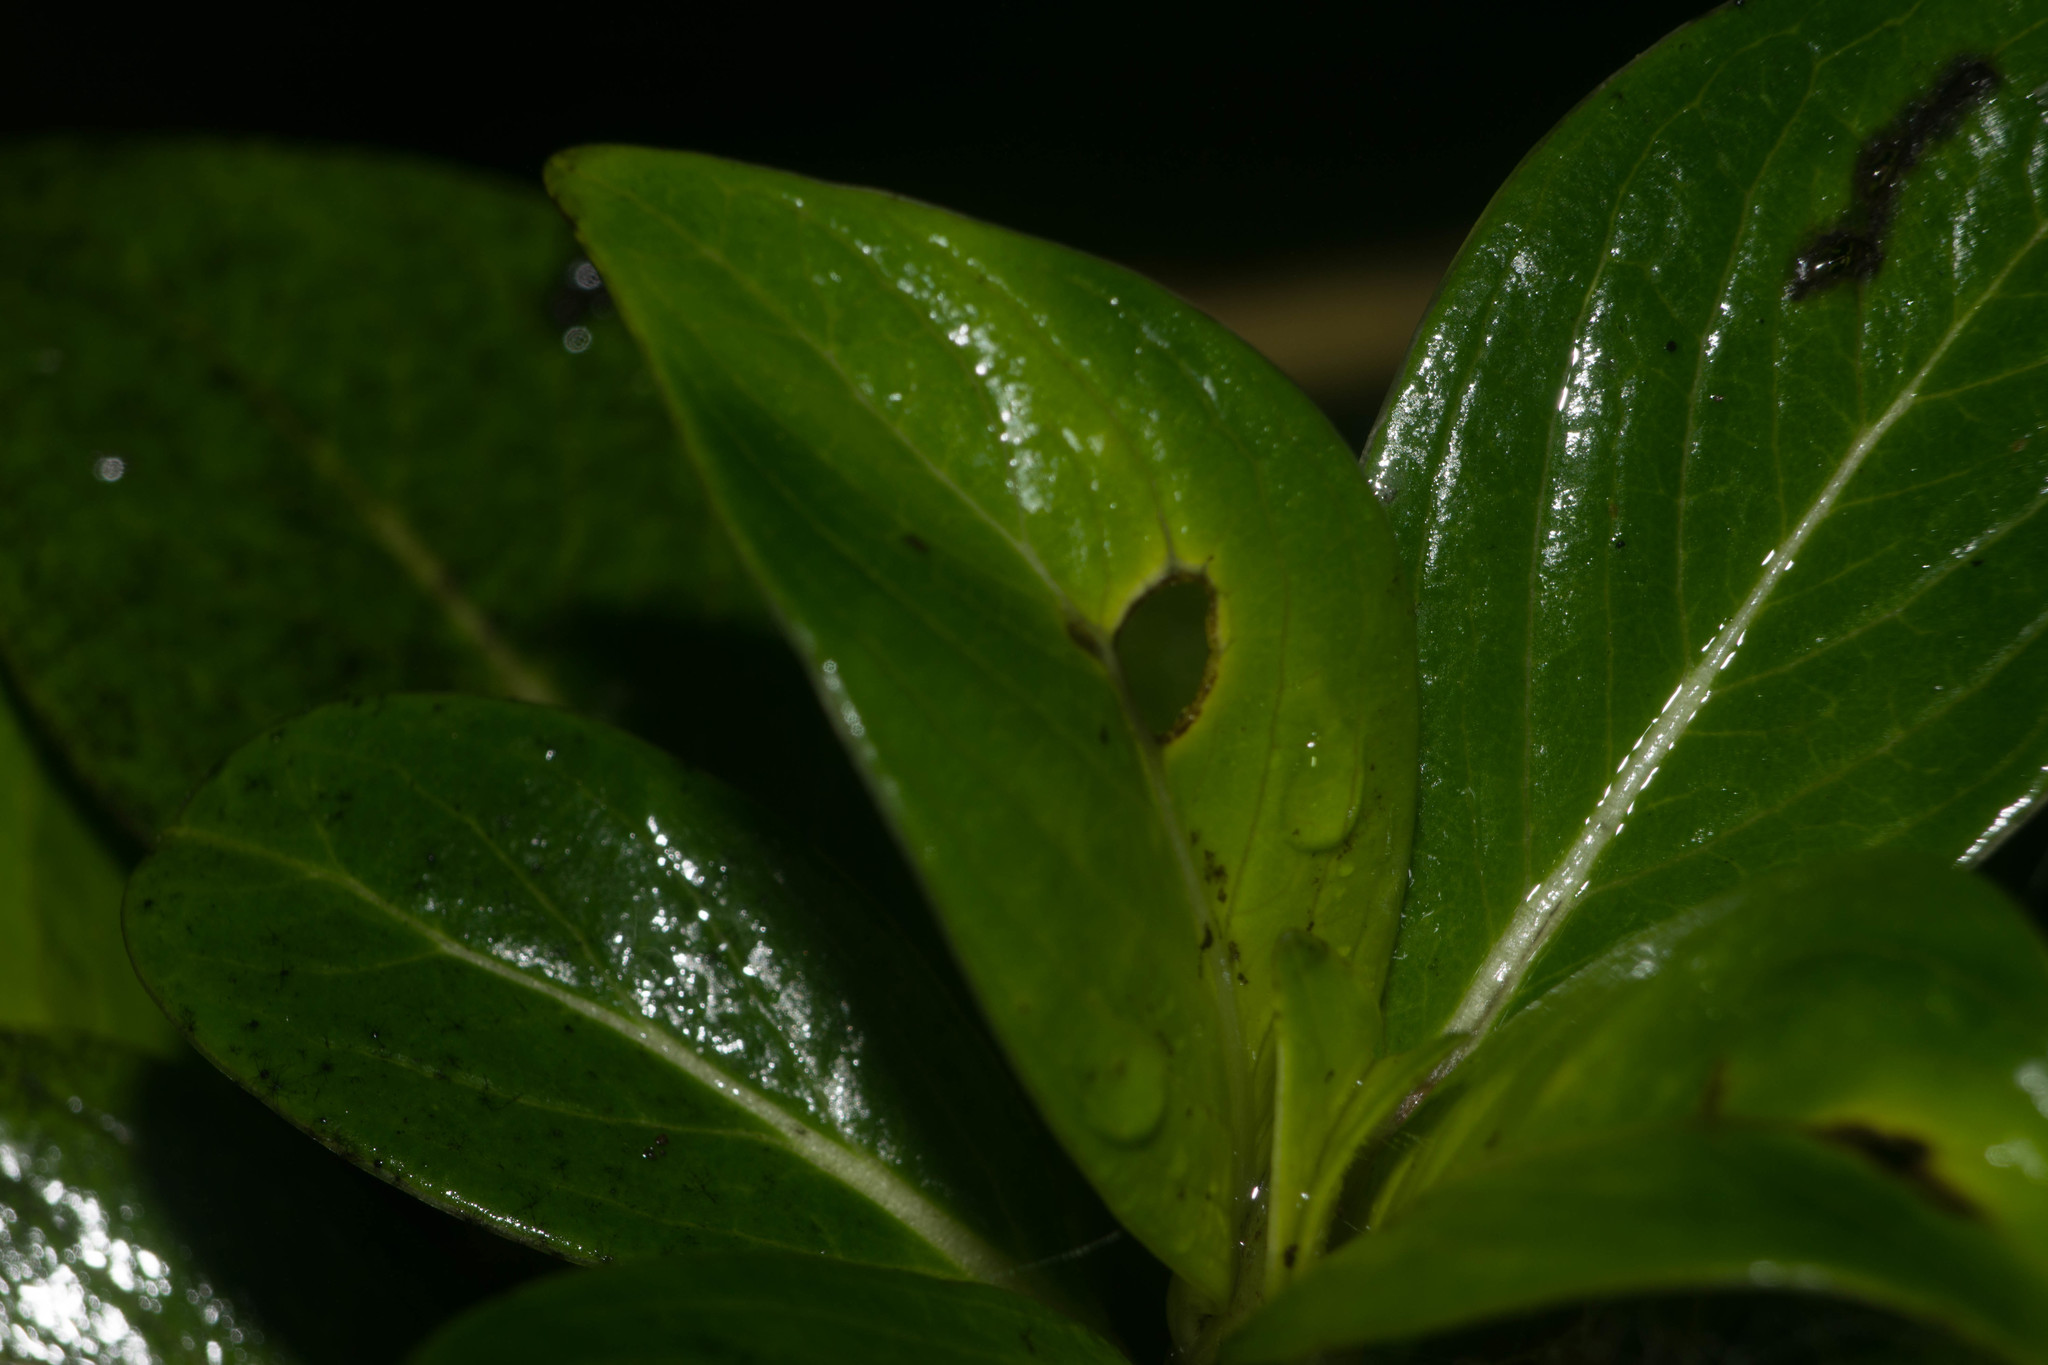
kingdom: Plantae
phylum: Tracheophyta
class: Magnoliopsida
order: Gentianales
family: Loganiaceae
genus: Geniostoma
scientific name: Geniostoma waiolani
